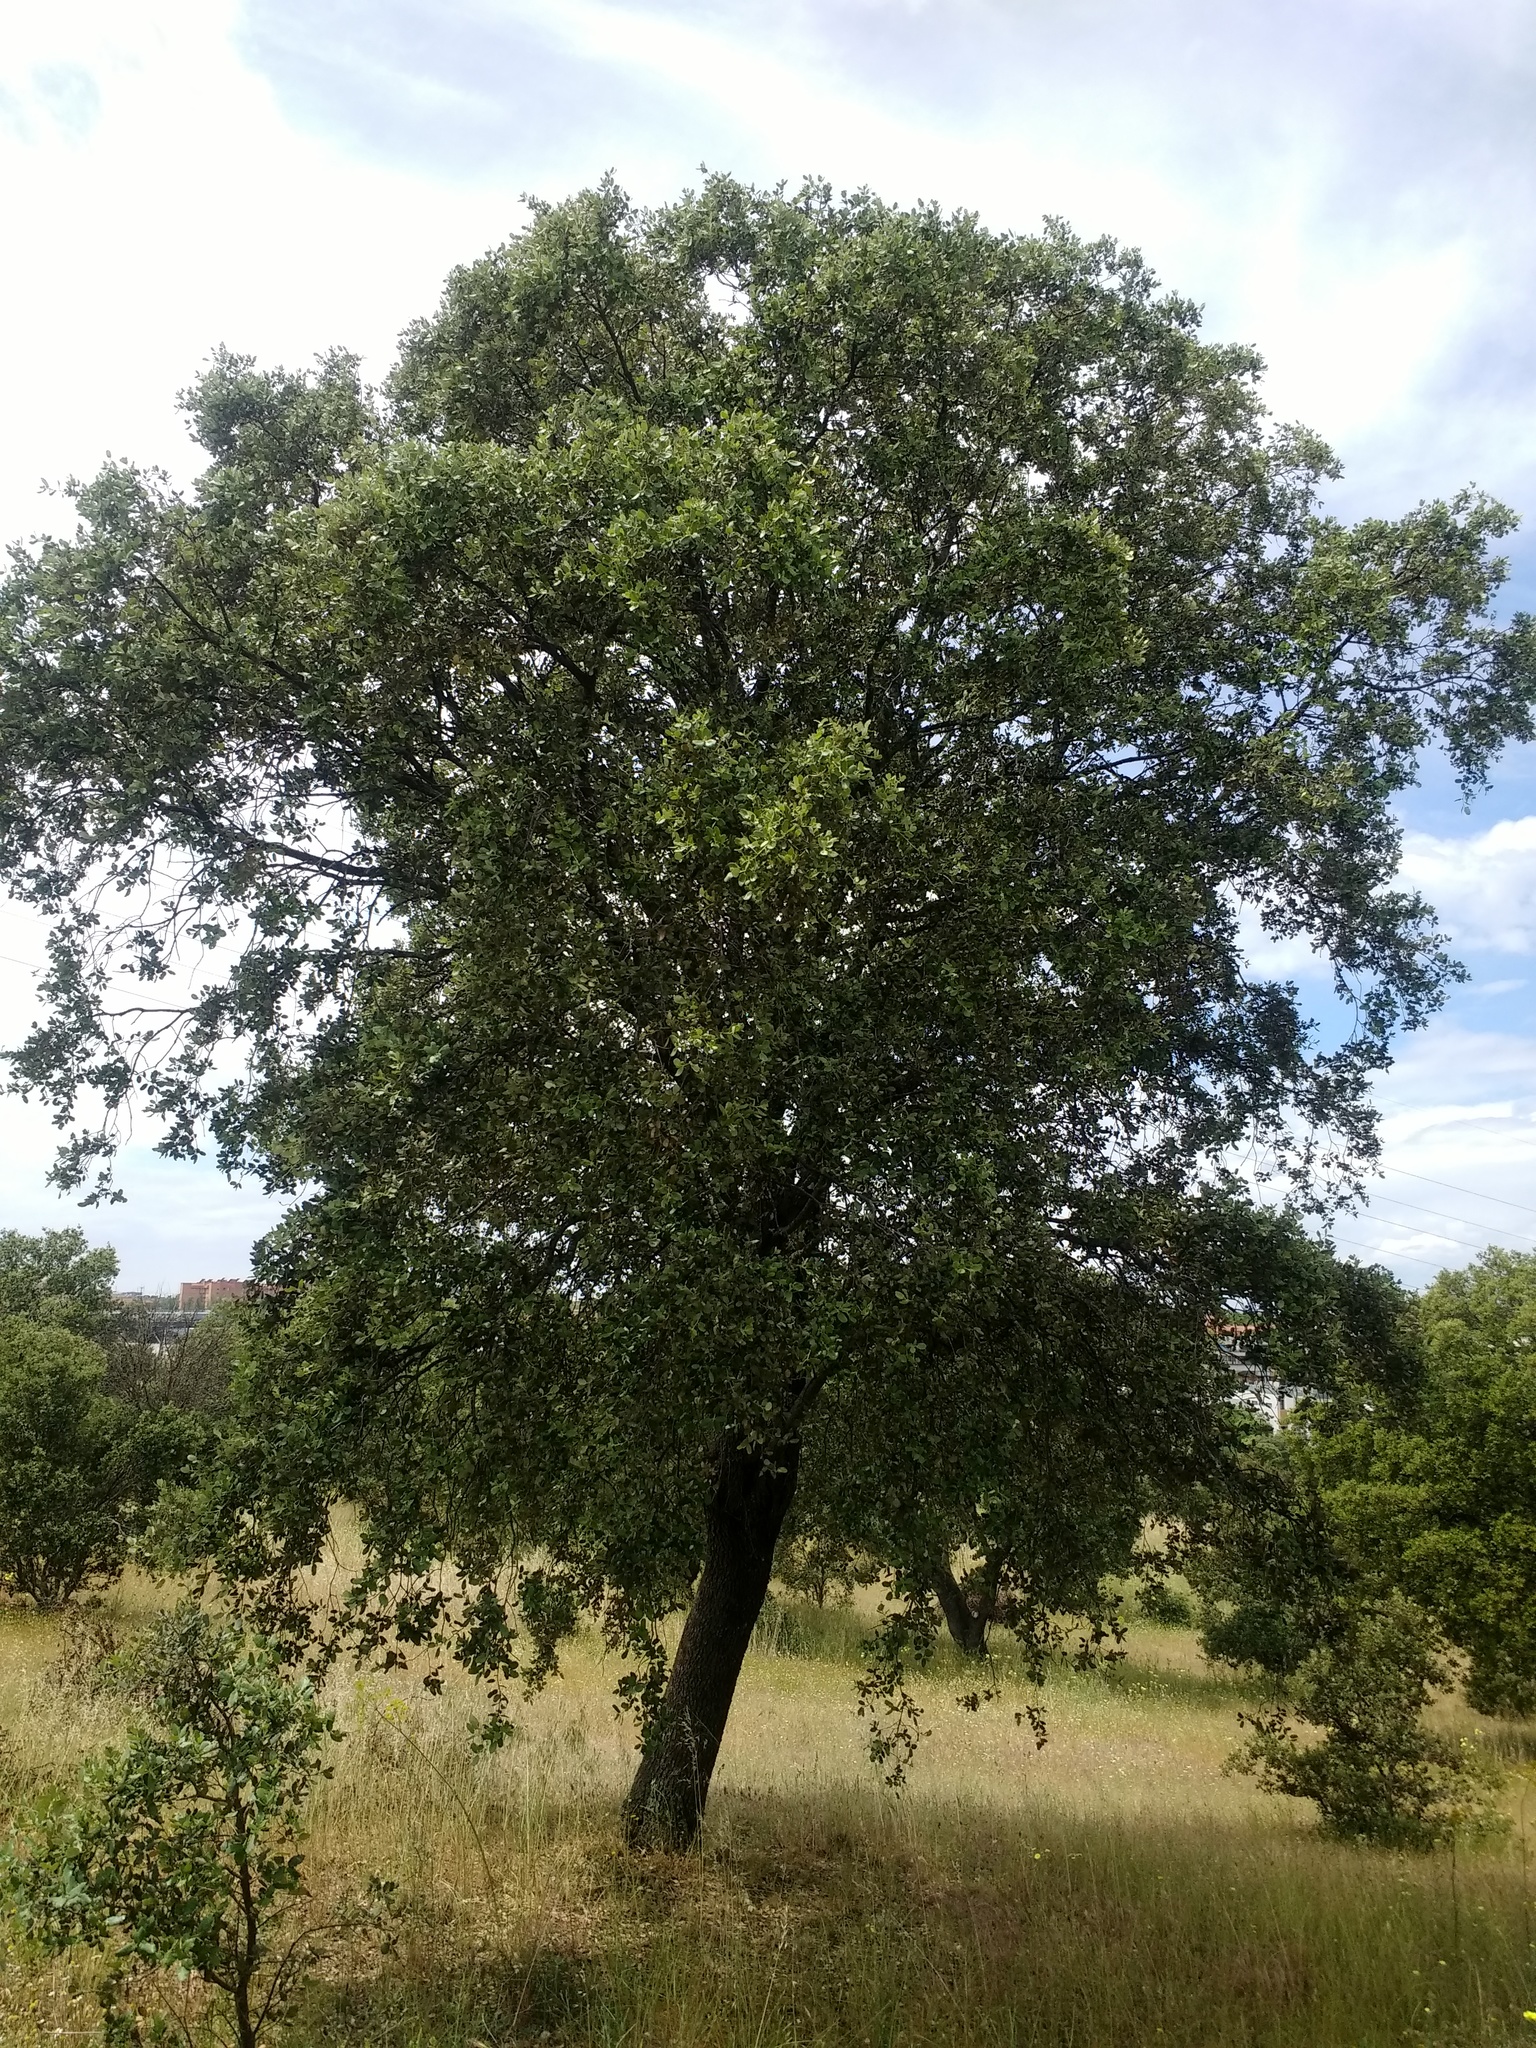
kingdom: Plantae
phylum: Tracheophyta
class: Magnoliopsida
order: Fagales
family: Fagaceae
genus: Quercus
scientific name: Quercus rotundifolia
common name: Holm oak
